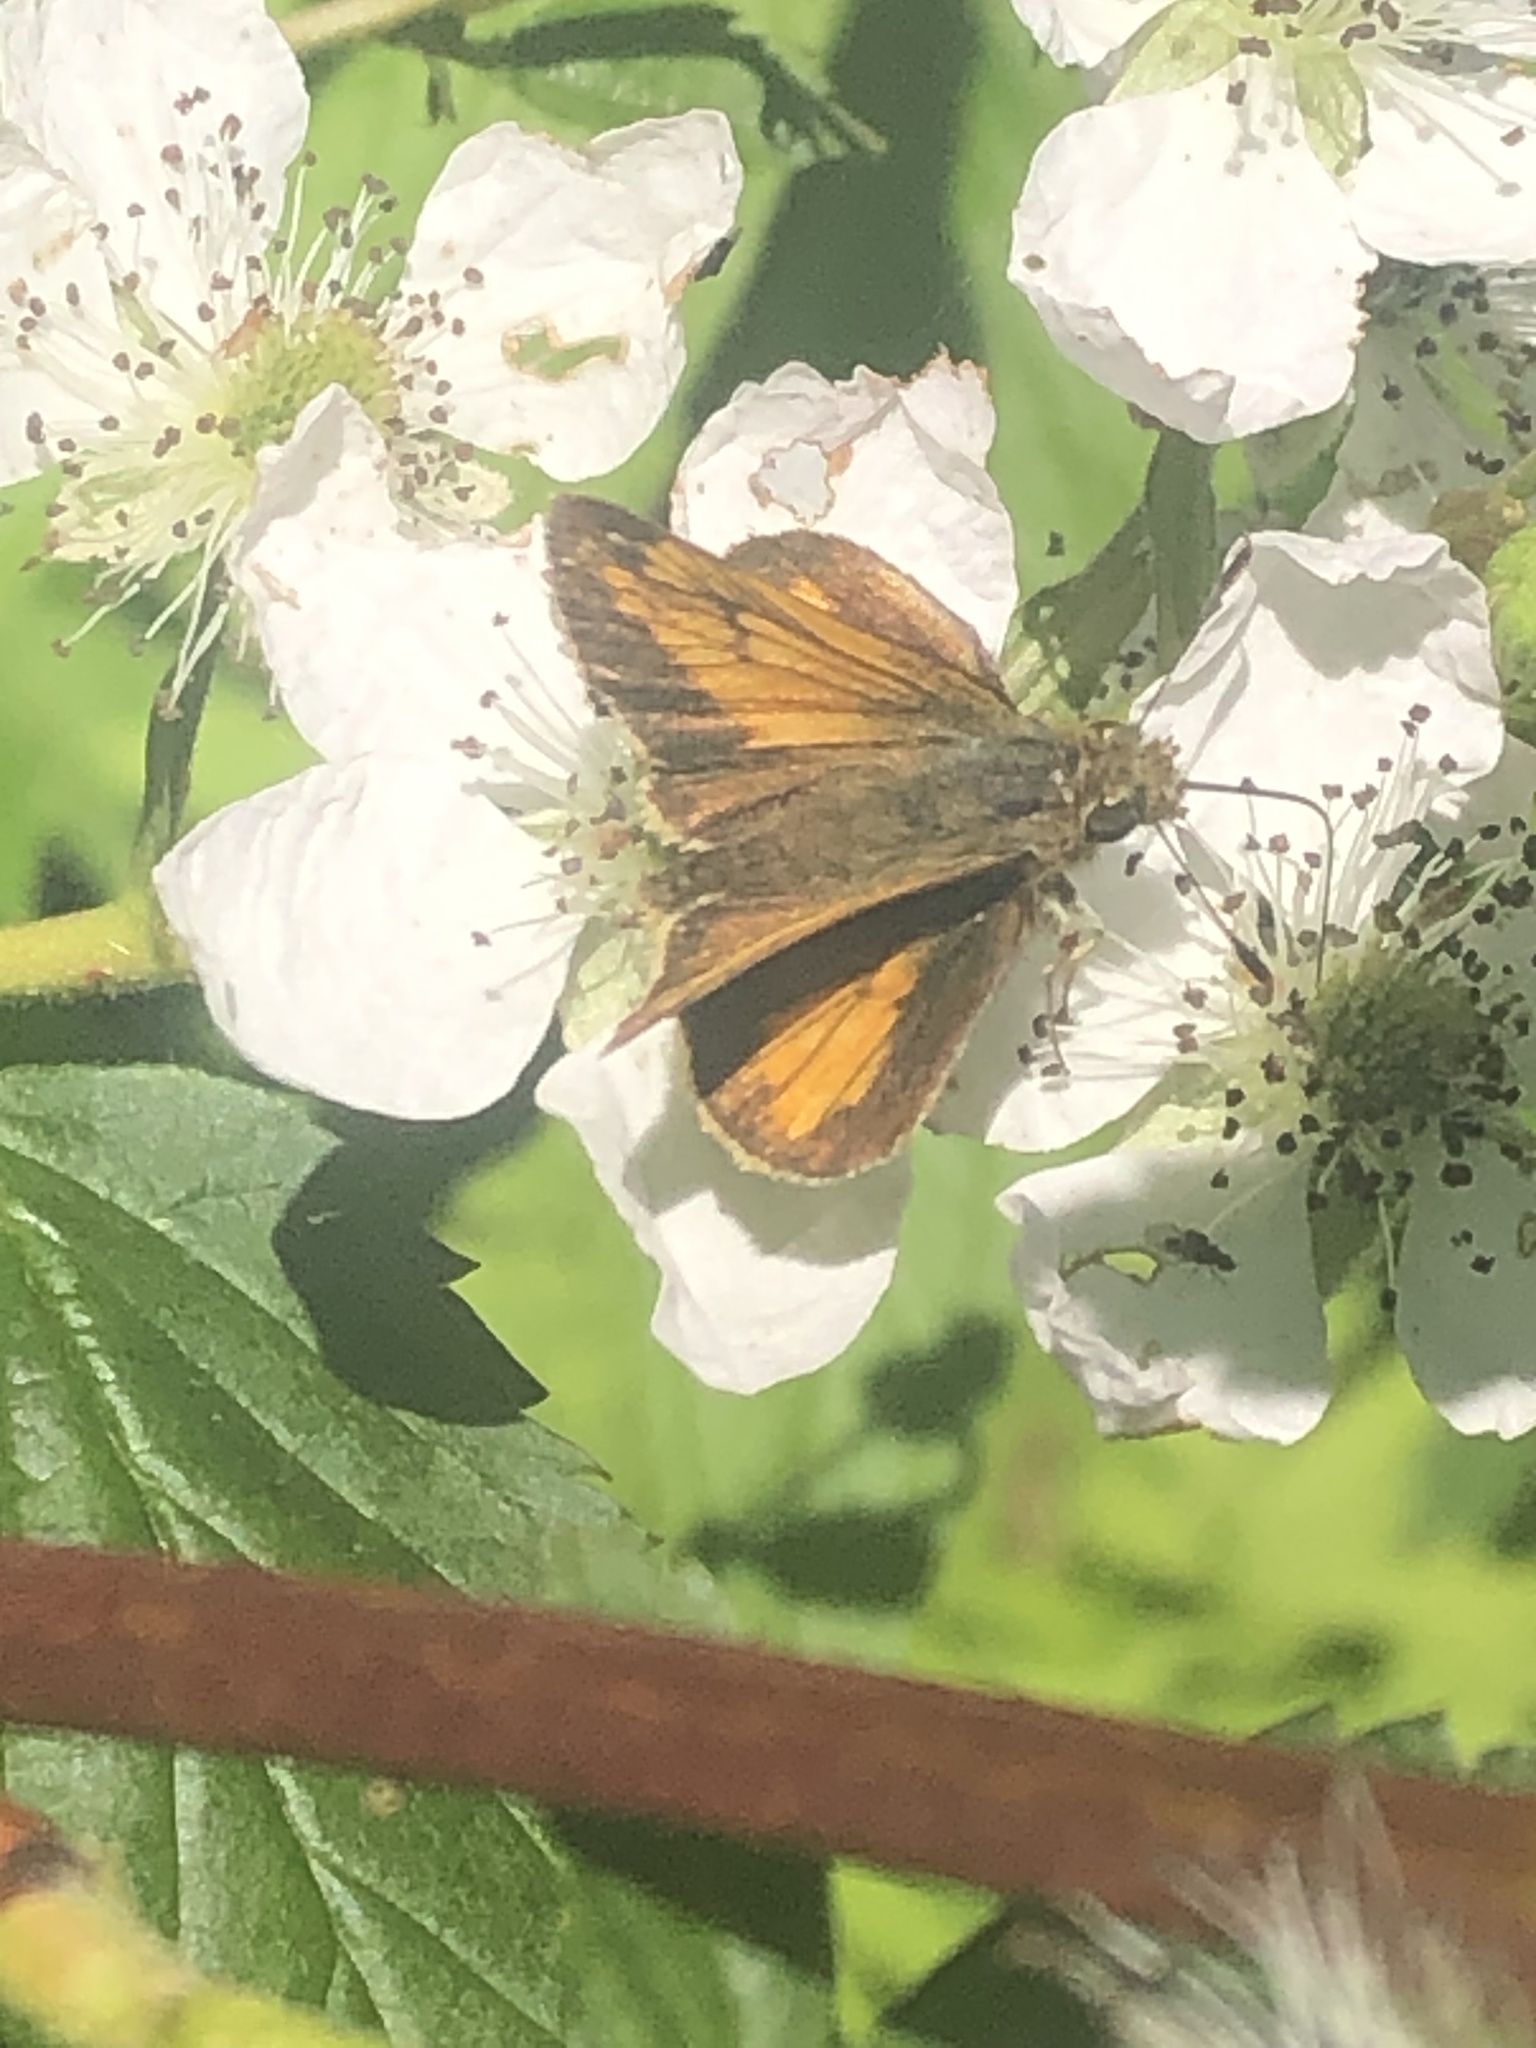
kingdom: Animalia
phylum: Arthropoda
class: Insecta
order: Lepidoptera
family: Hesperiidae
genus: Lon
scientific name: Lon hobomok
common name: Hobomok skipper
